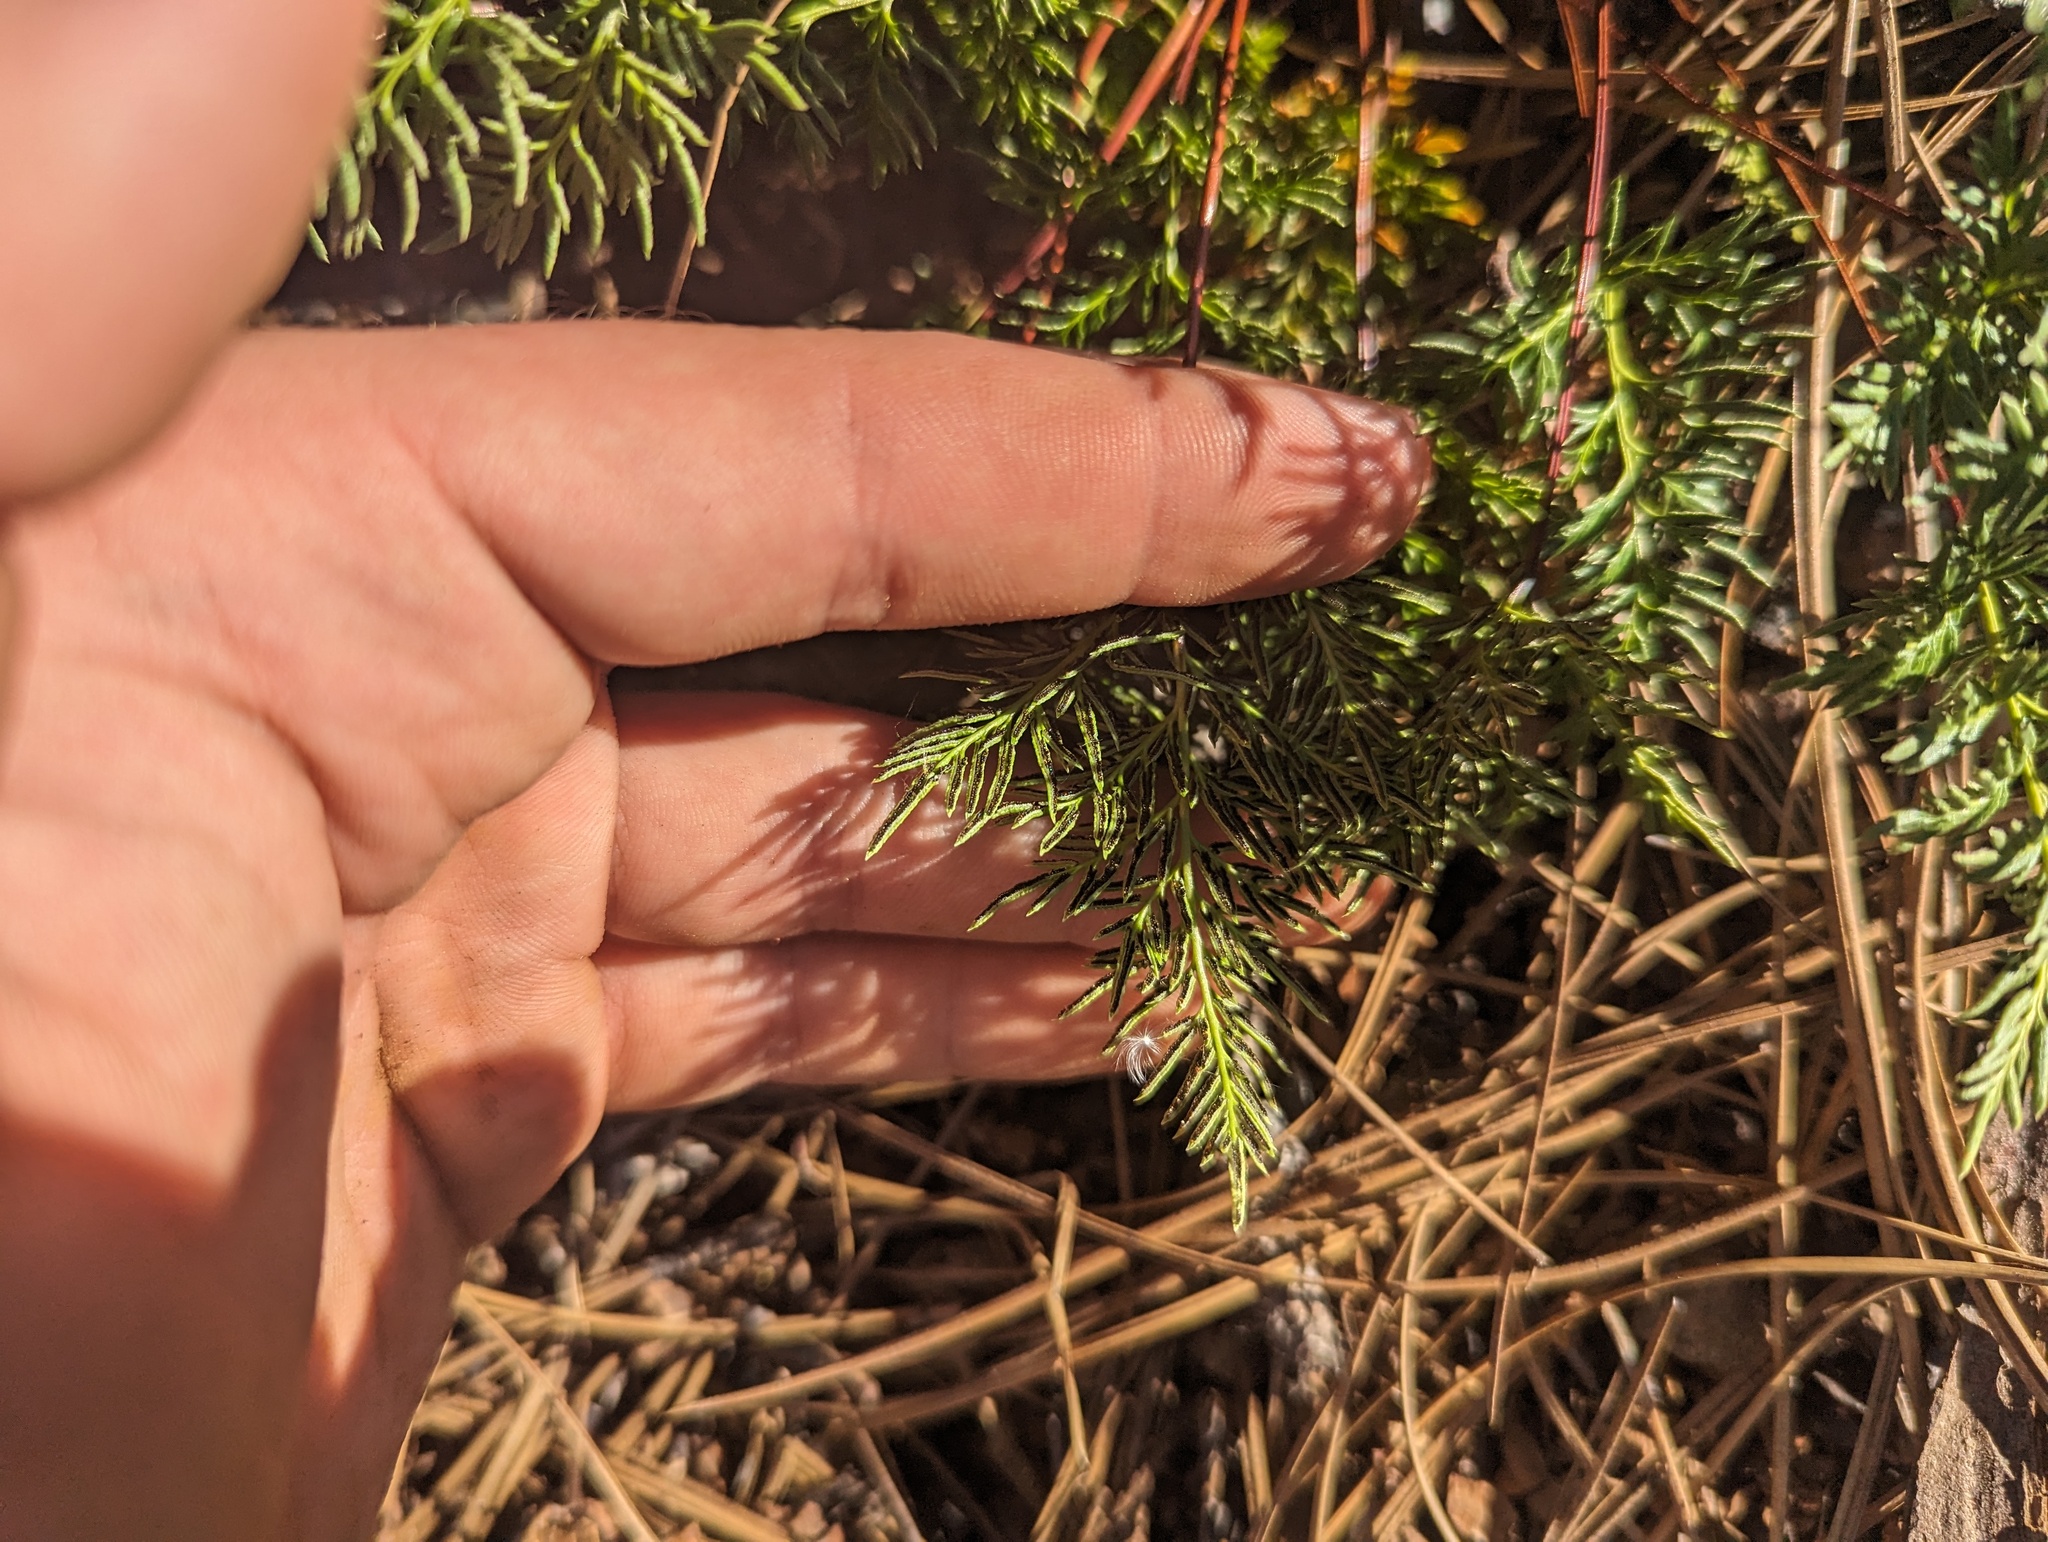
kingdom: Plantae
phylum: Tracheophyta
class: Polypodiopsida
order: Polypodiales
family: Pteridaceae
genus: Aspidotis
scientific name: Aspidotis densa
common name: Indian's dream
